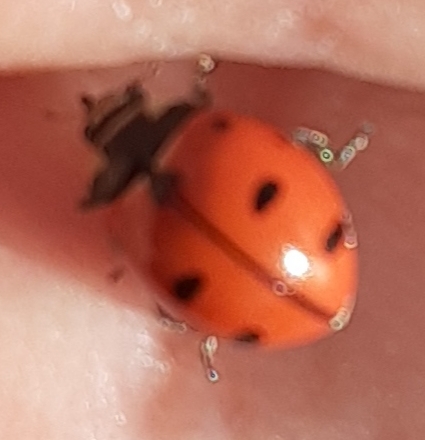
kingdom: Animalia
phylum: Arthropoda
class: Insecta
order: Coleoptera
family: Coccinellidae
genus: Coccinella
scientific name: Coccinella novemnotata
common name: Nine-spotted lady beetle
